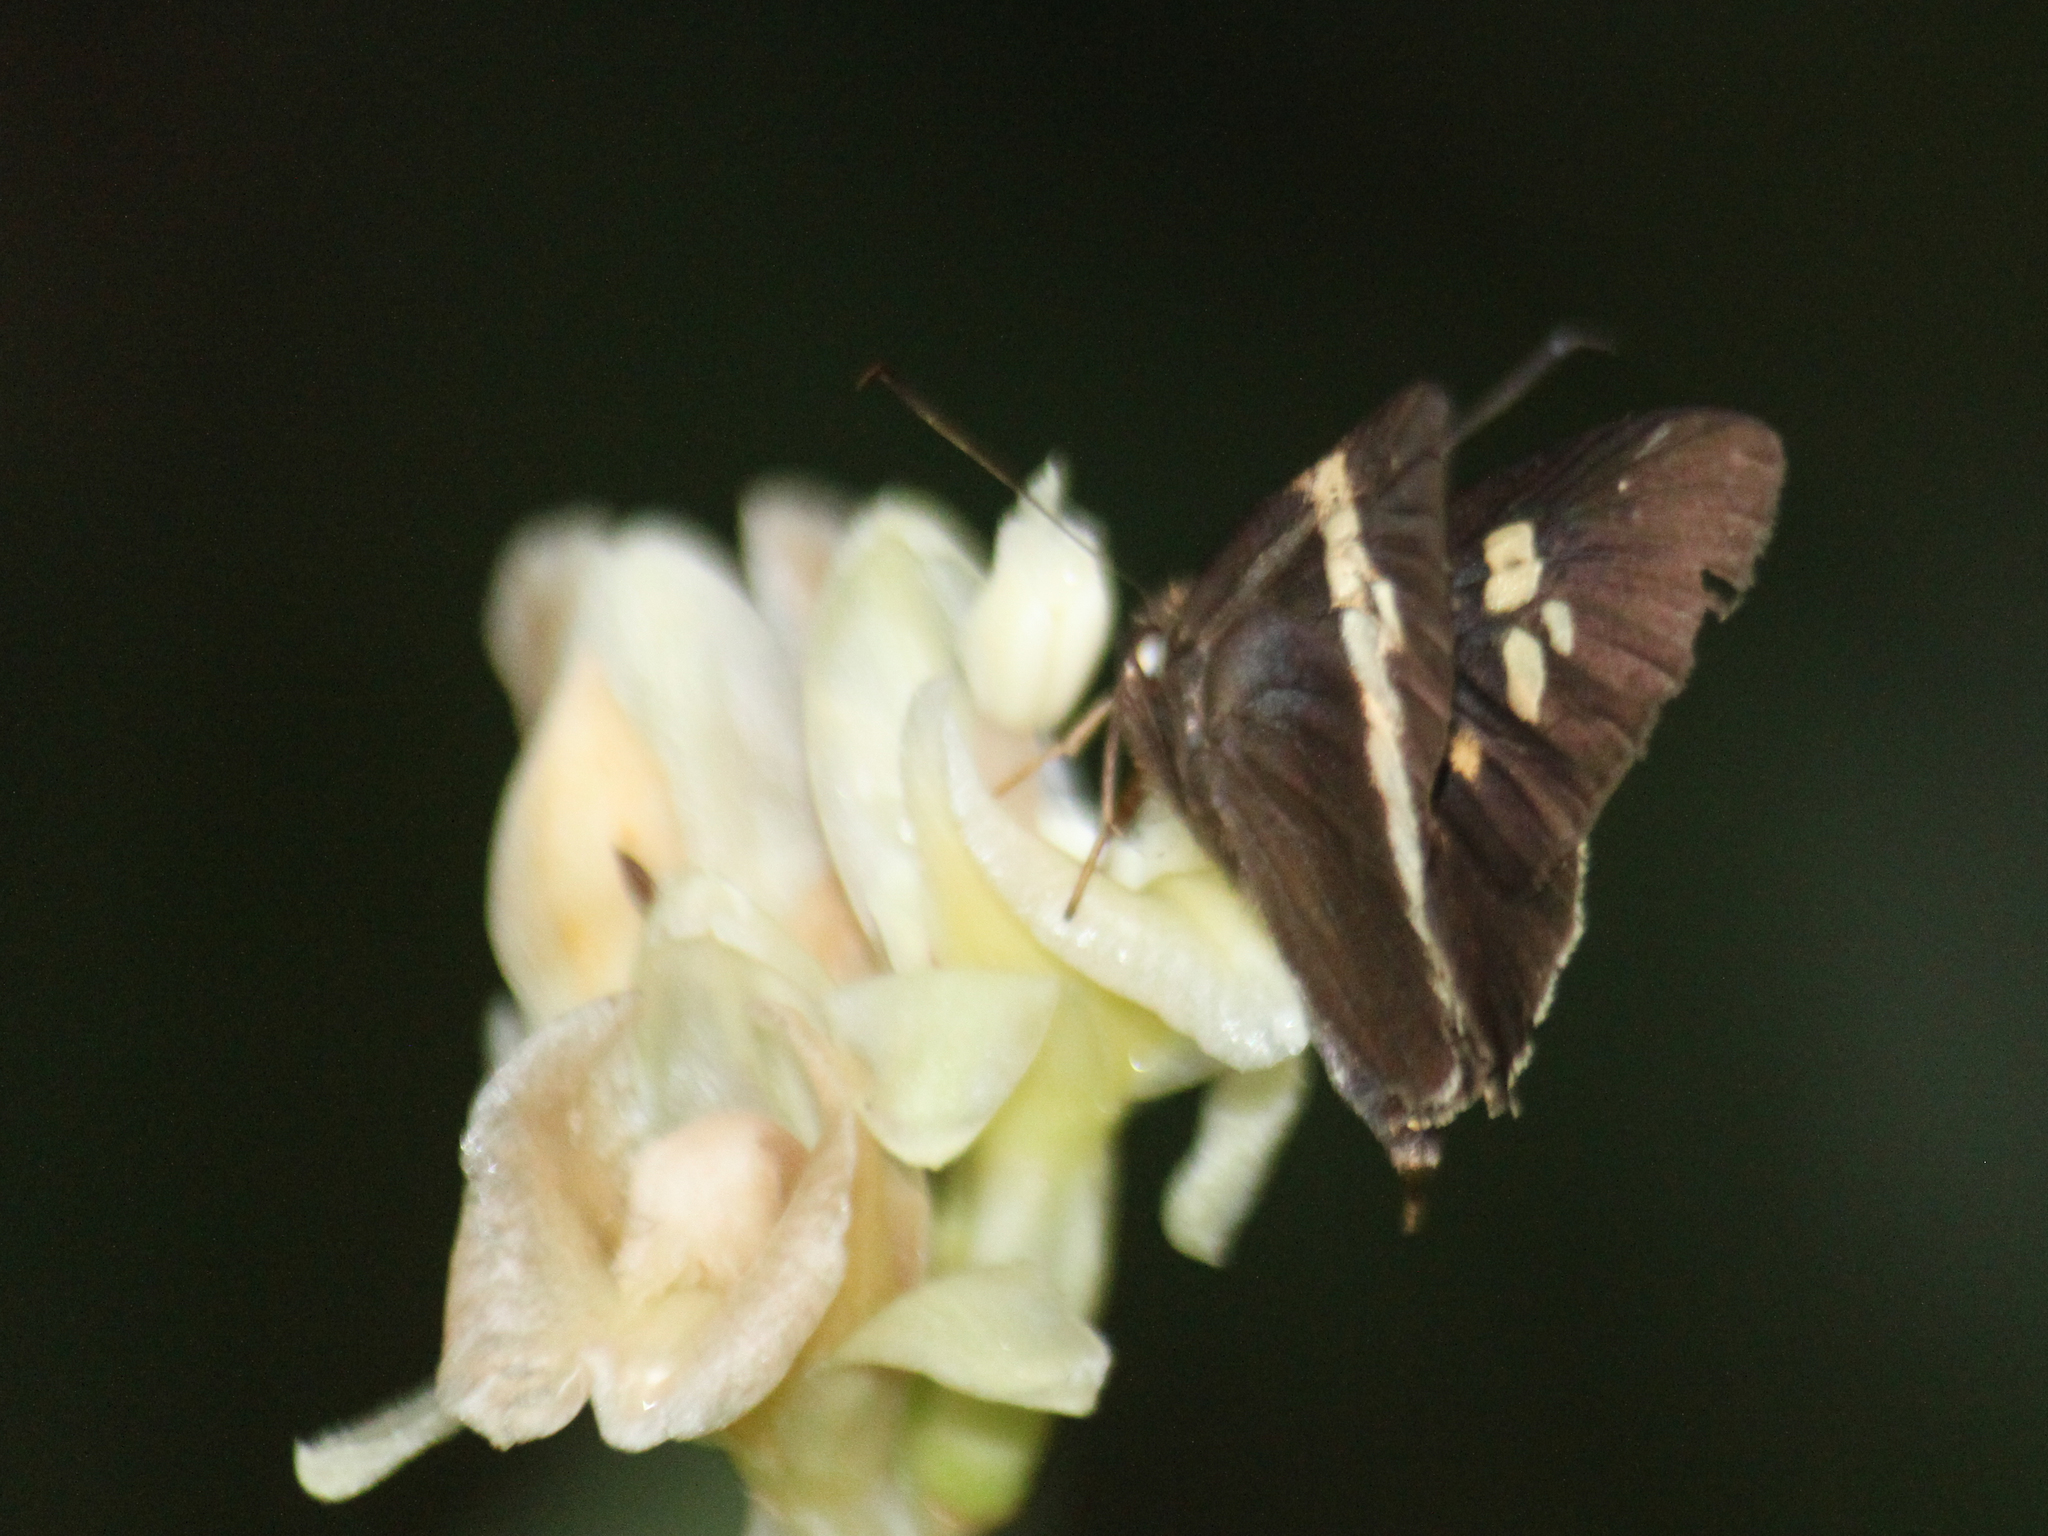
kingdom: Animalia
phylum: Arthropoda
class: Insecta
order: Lepidoptera
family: Hesperiidae
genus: Lotongus
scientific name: Lotongus calathus
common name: White-tipped palmer
